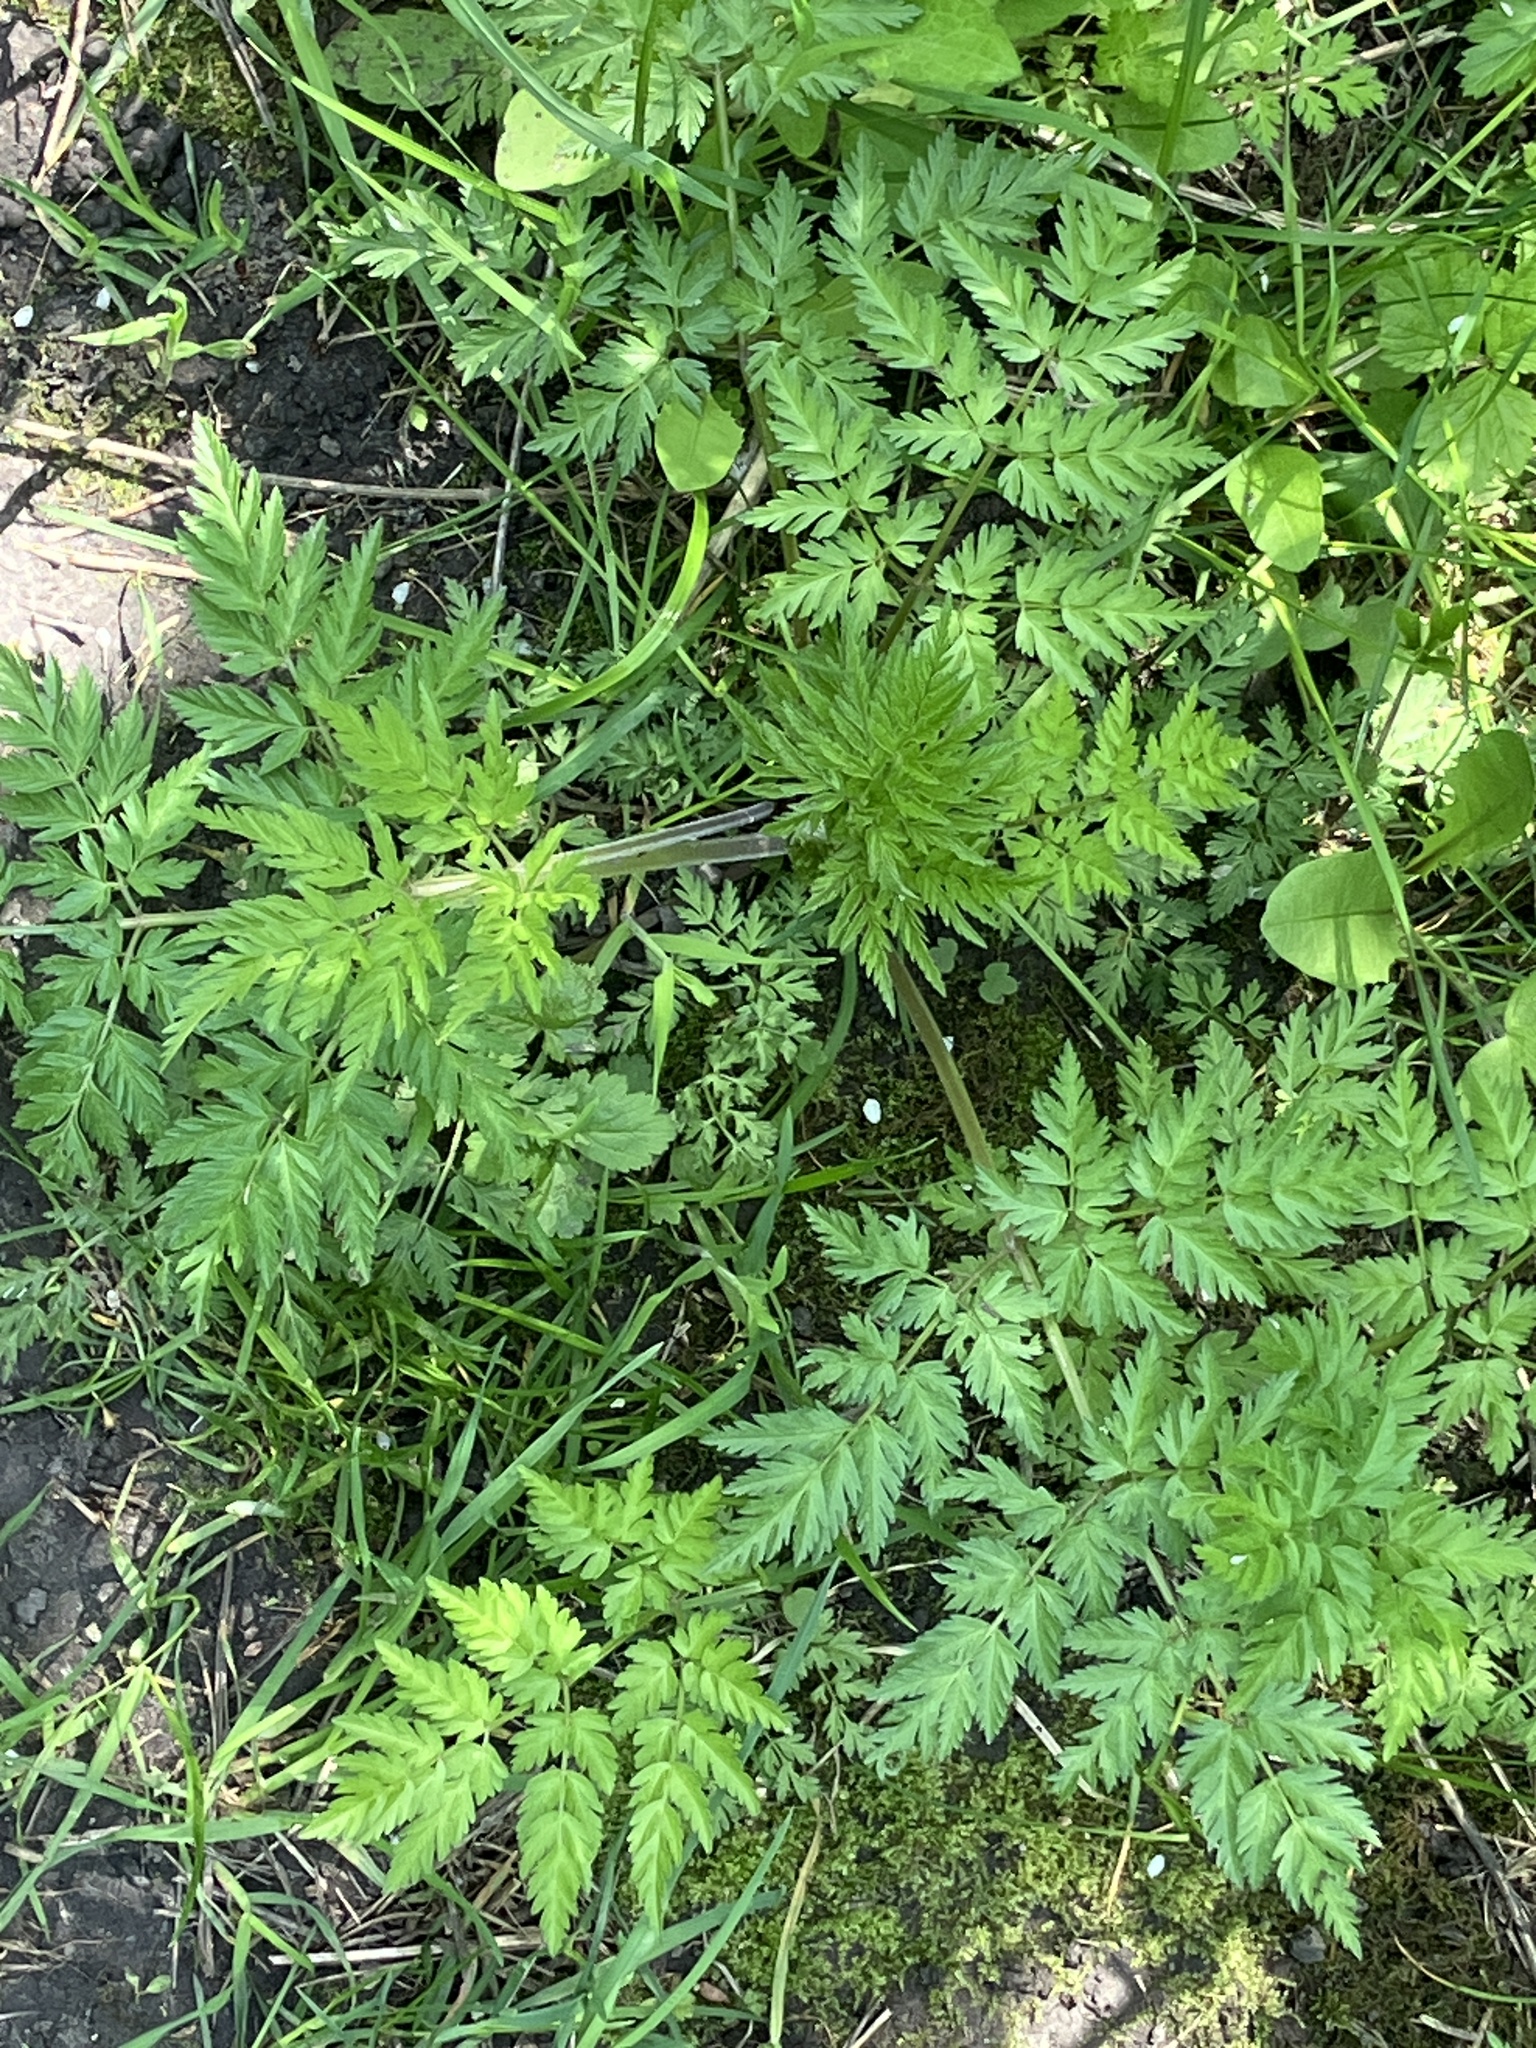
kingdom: Plantae
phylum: Tracheophyta
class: Magnoliopsida
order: Apiales
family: Apiaceae
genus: Anthriscus
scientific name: Anthriscus sylvestris
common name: Cow parsley
